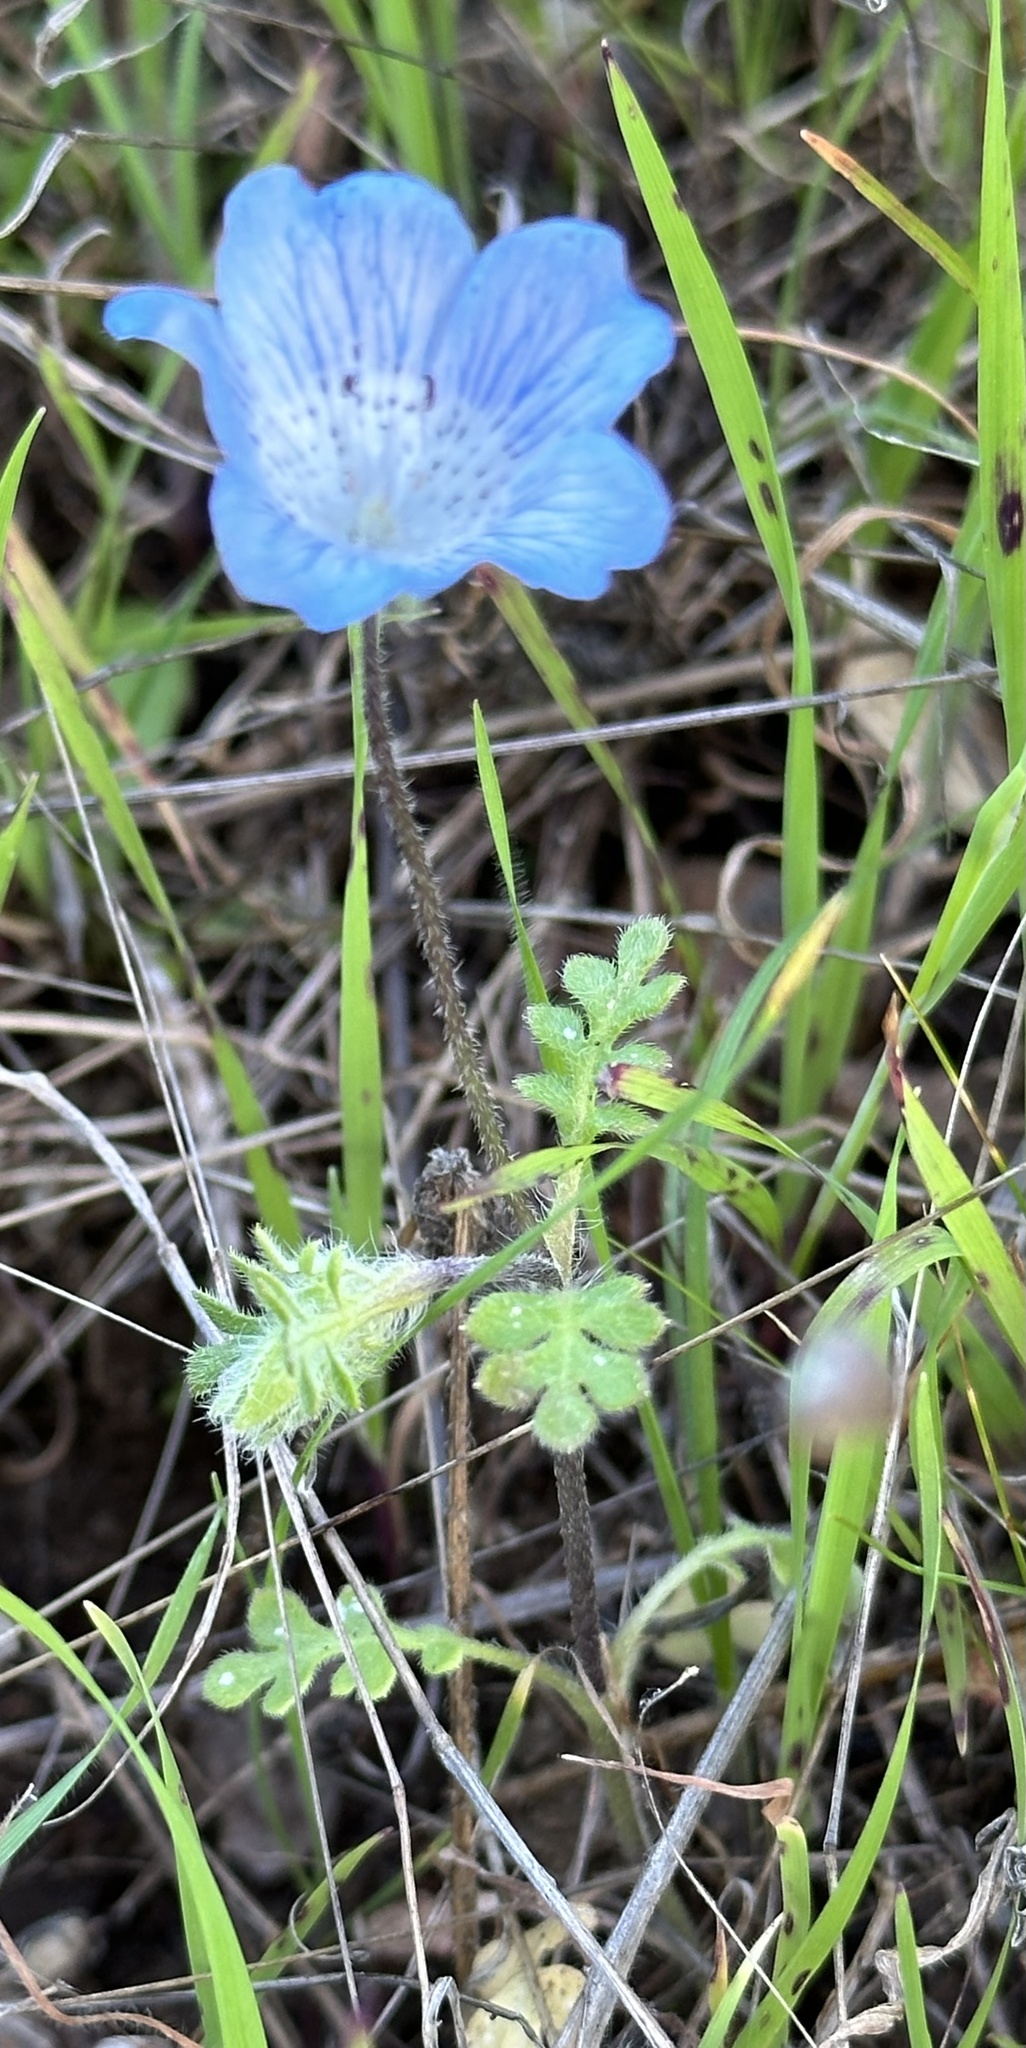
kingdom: Plantae
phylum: Tracheophyta
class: Magnoliopsida
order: Boraginales
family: Hydrophyllaceae
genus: Nemophila
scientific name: Nemophila menziesii
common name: Baby's-blue-eyes
